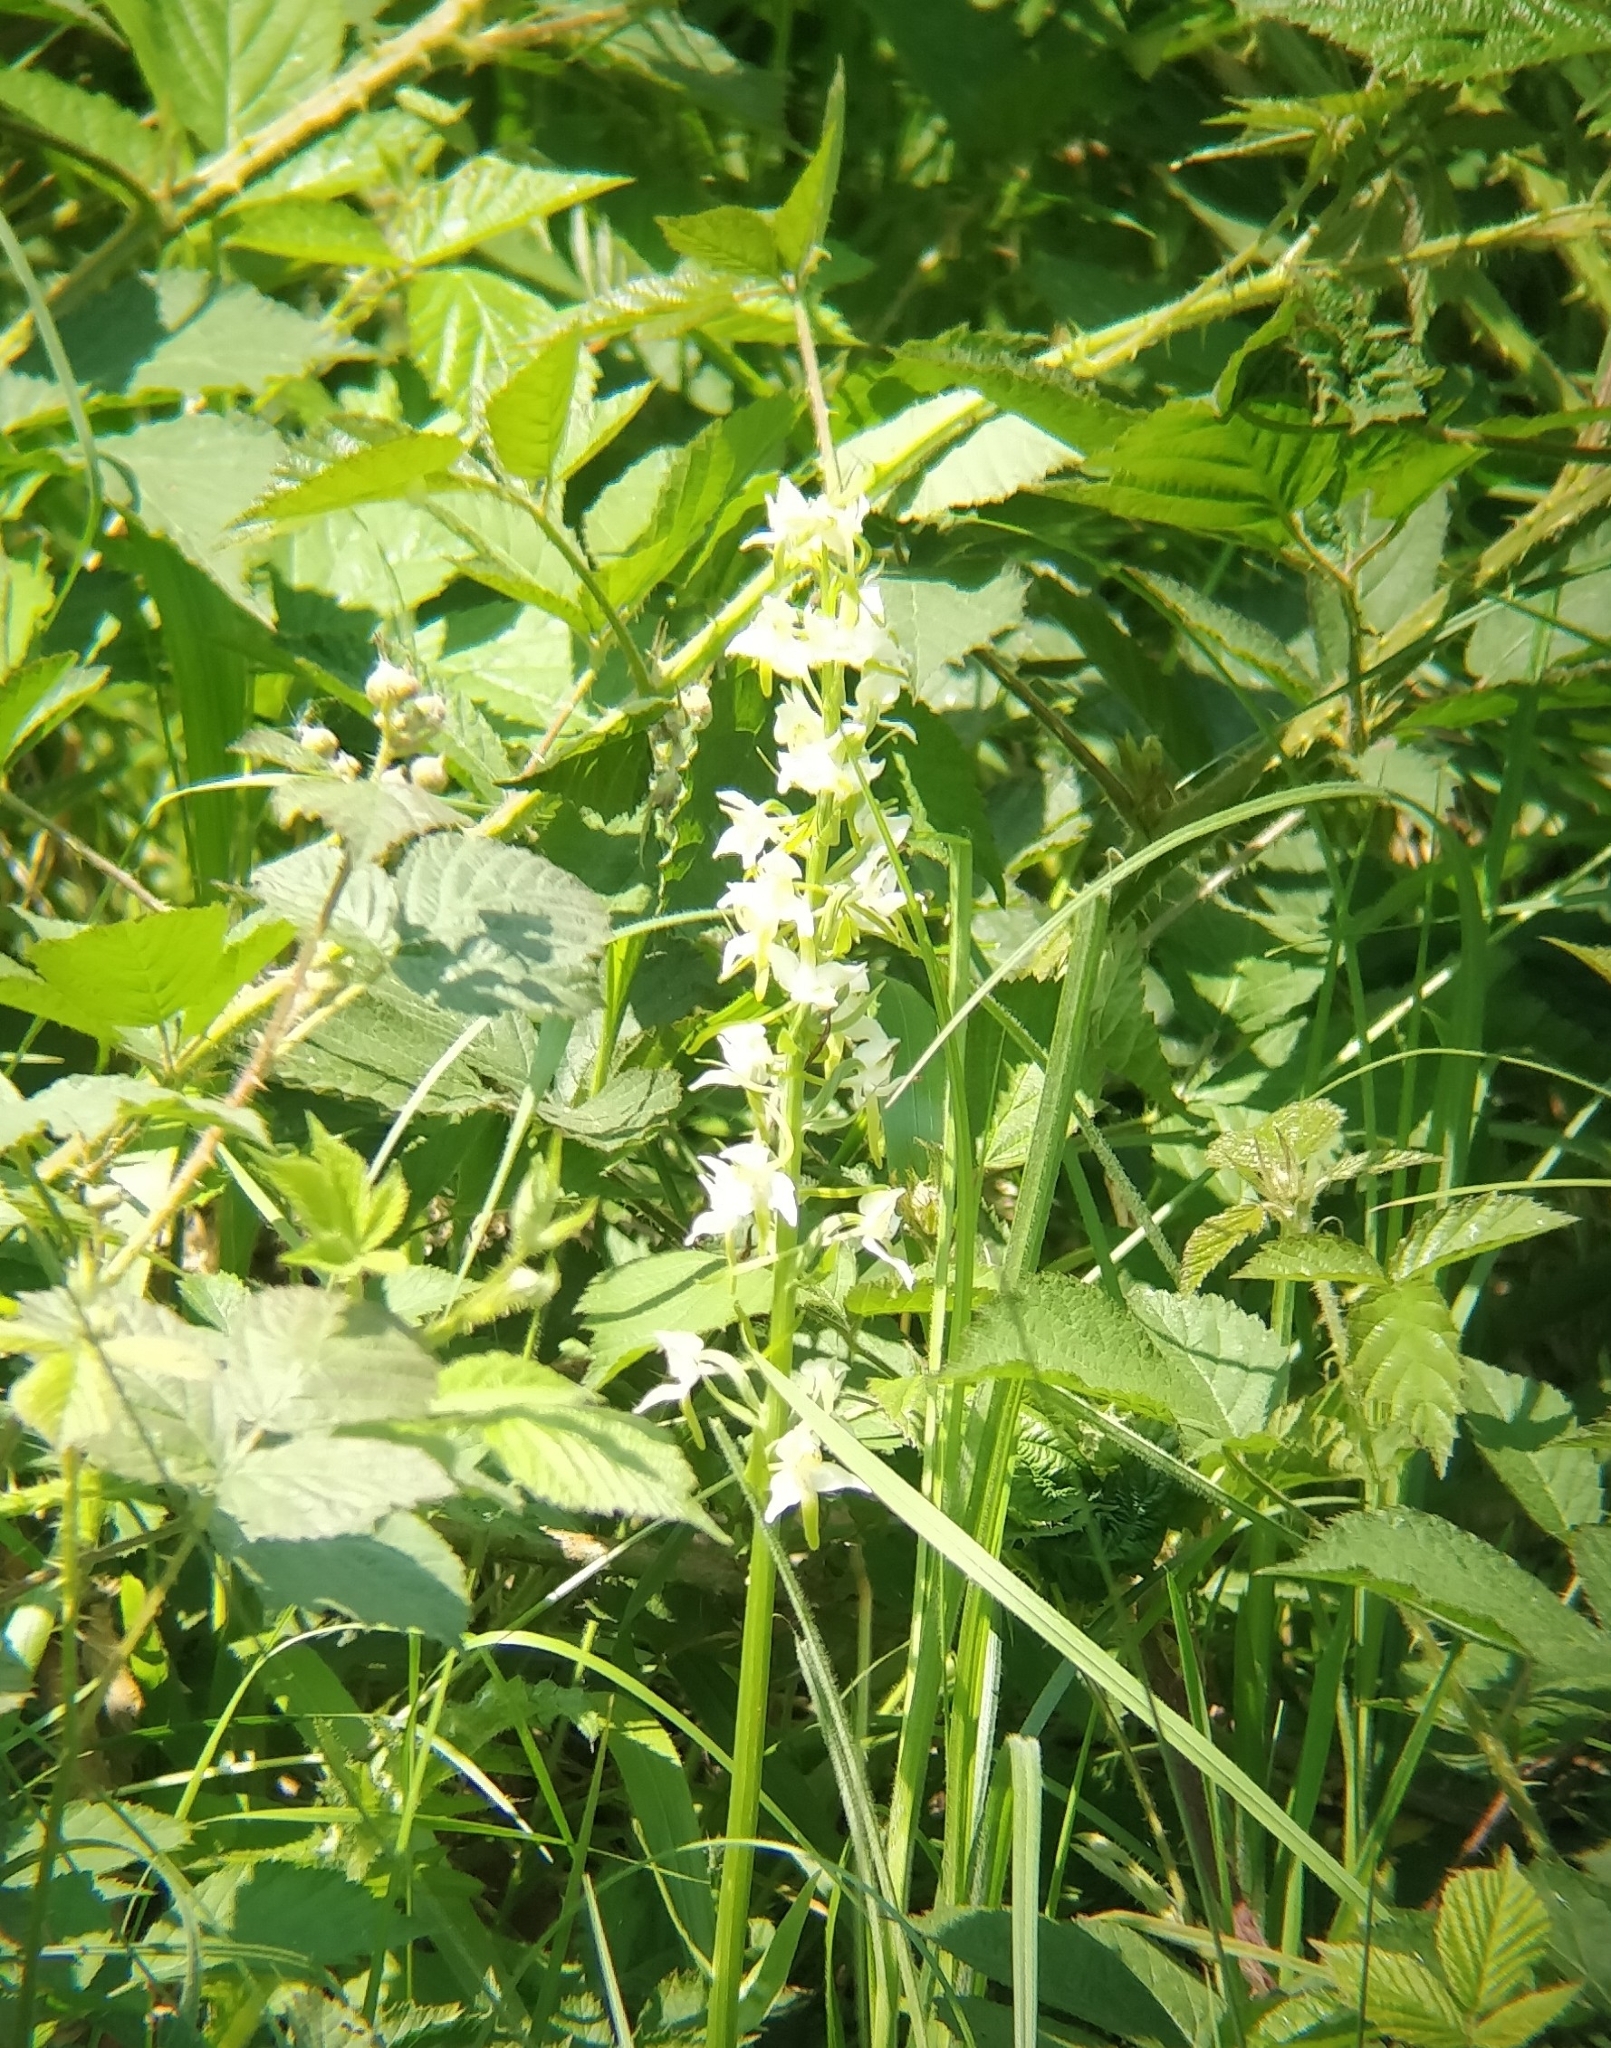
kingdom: Plantae
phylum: Tracheophyta
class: Liliopsida
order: Asparagales
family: Orchidaceae
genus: Platanthera
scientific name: Platanthera chlorantha
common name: Greater butterfly-orchid
